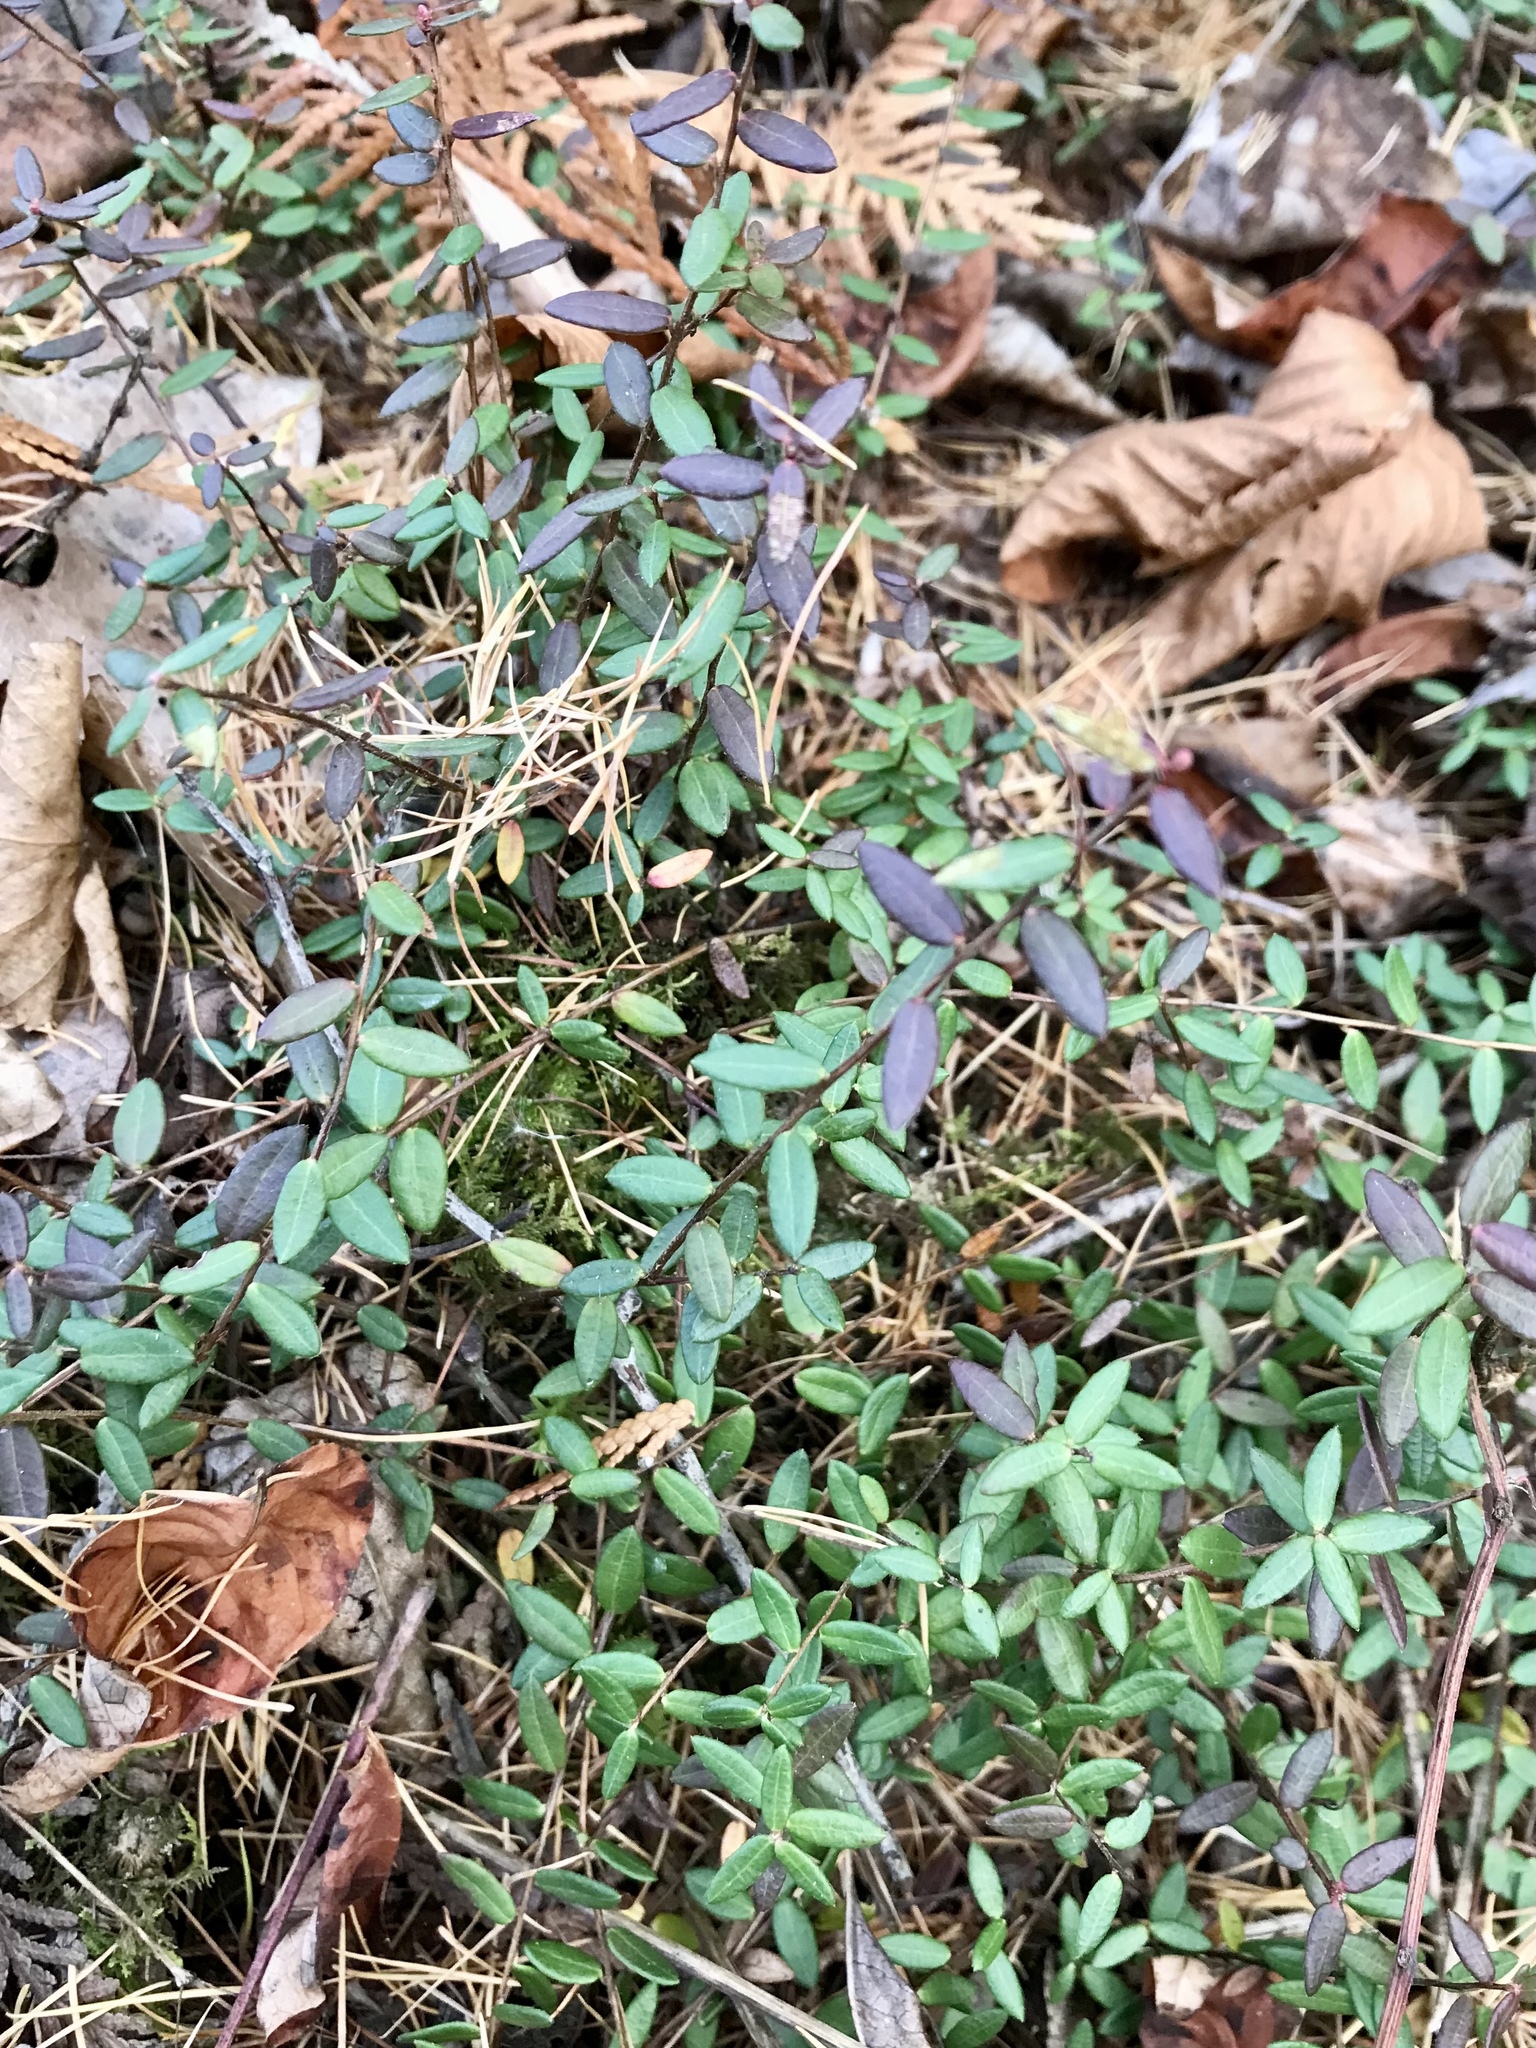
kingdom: Plantae
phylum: Tracheophyta
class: Magnoliopsida
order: Ericales
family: Ericaceae
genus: Vaccinium
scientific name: Vaccinium oxycoccos
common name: Cranberry
